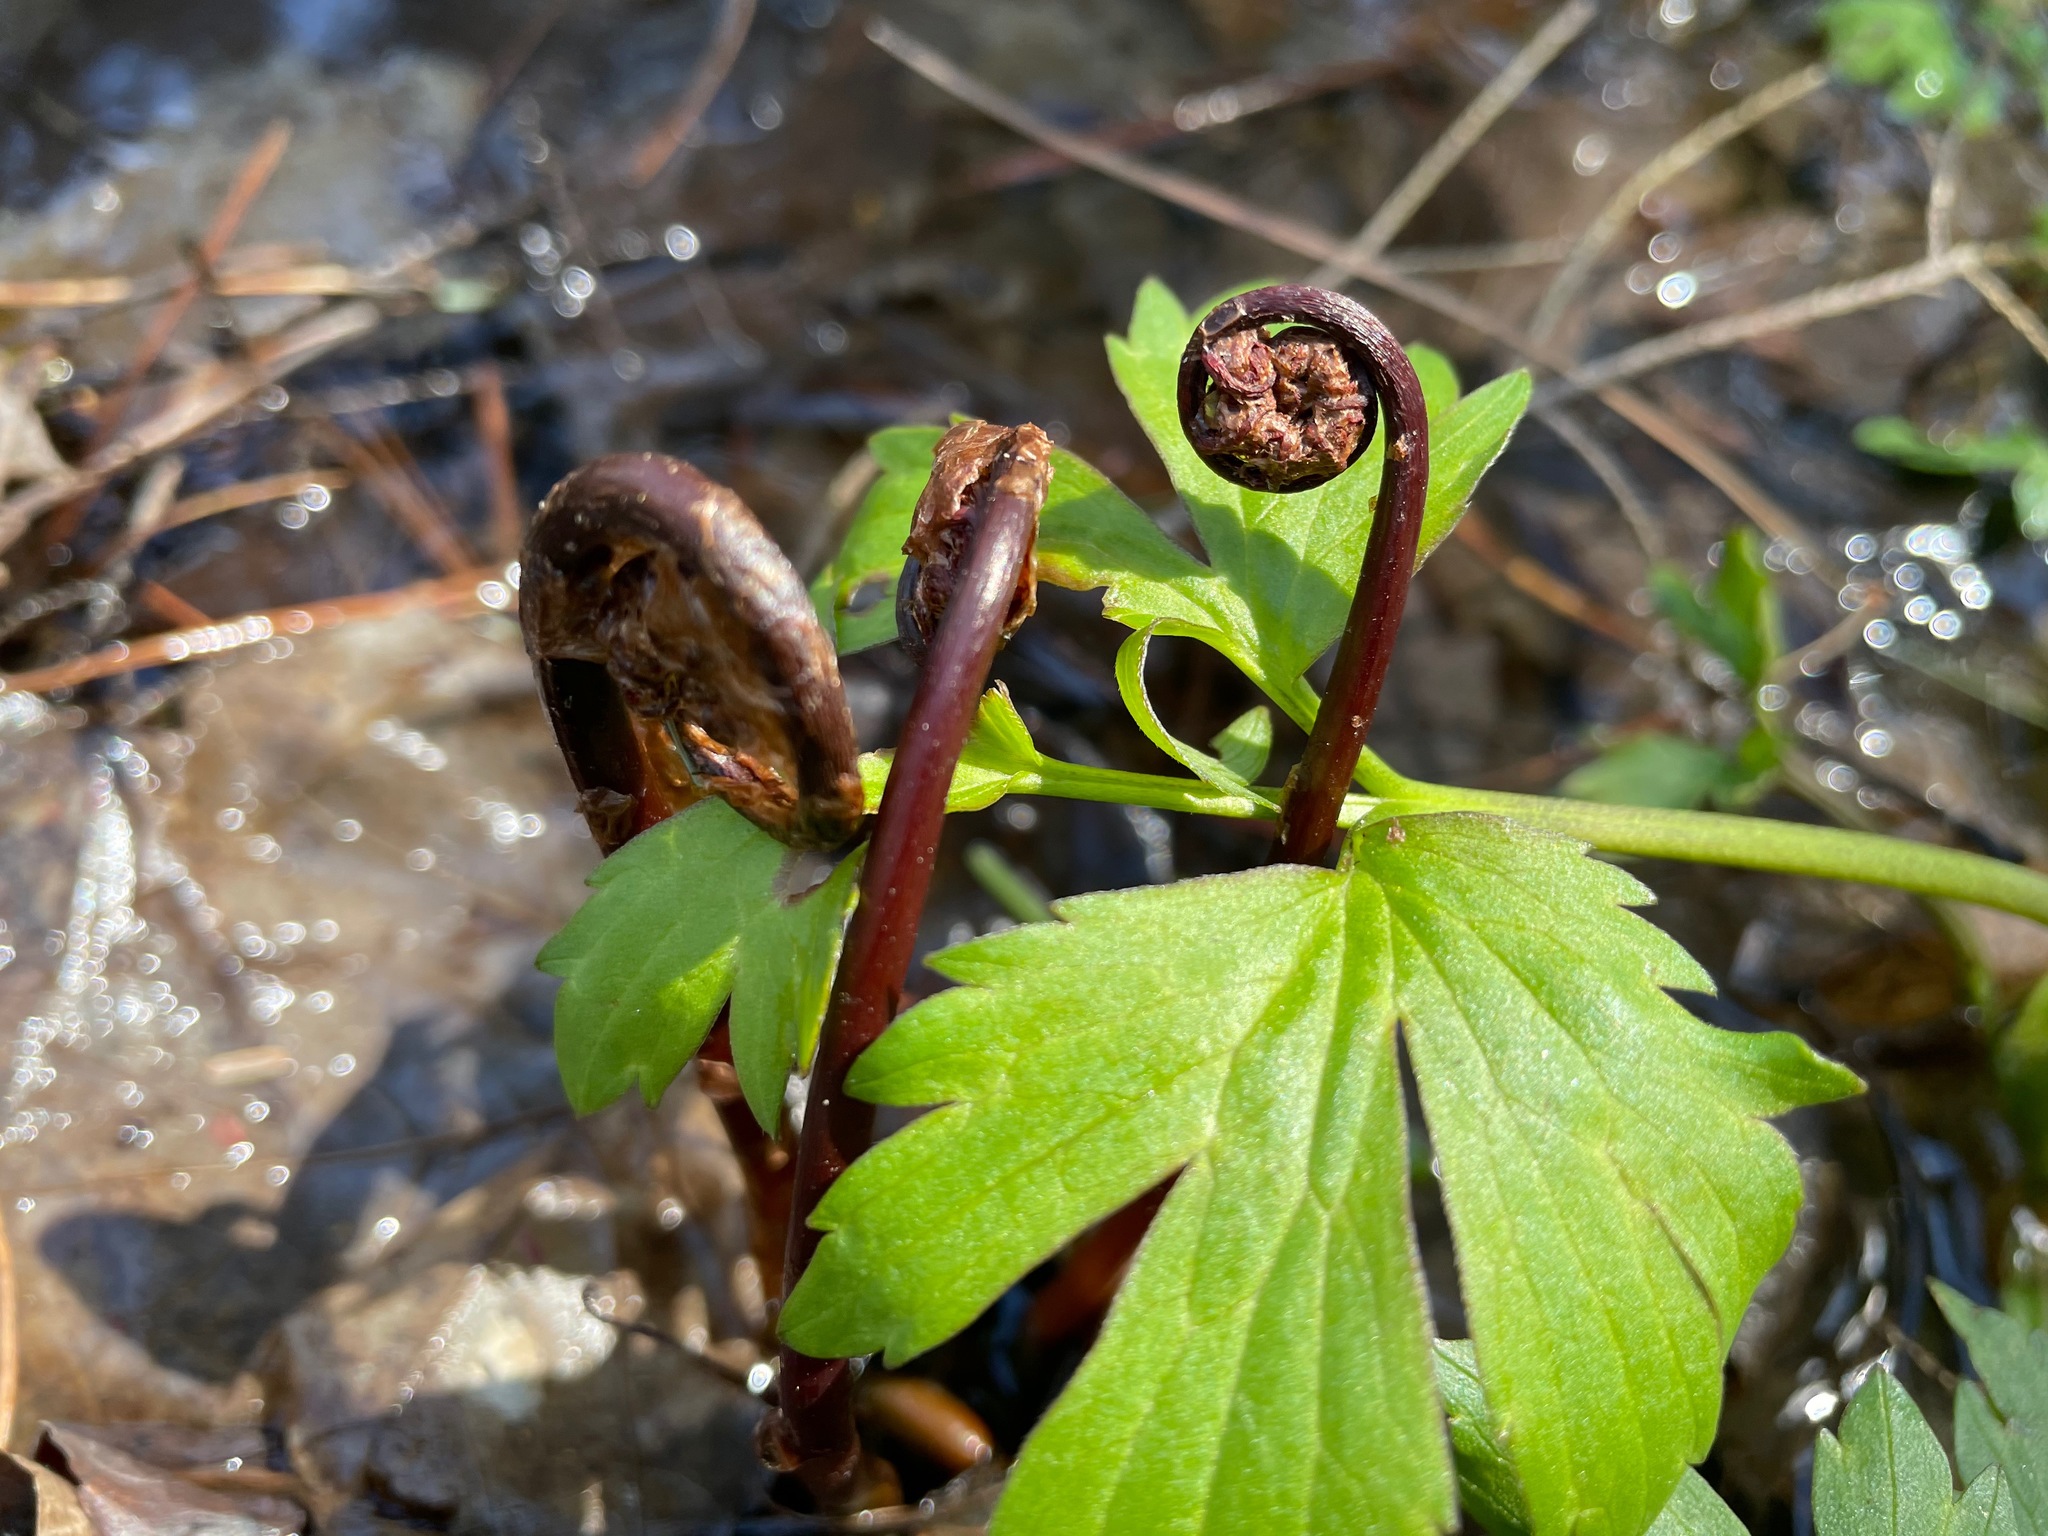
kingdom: Plantae
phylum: Tracheophyta
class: Polypodiopsida
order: Polypodiales
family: Onocleaceae
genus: Onoclea
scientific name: Onoclea sensibilis
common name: Sensitive fern
